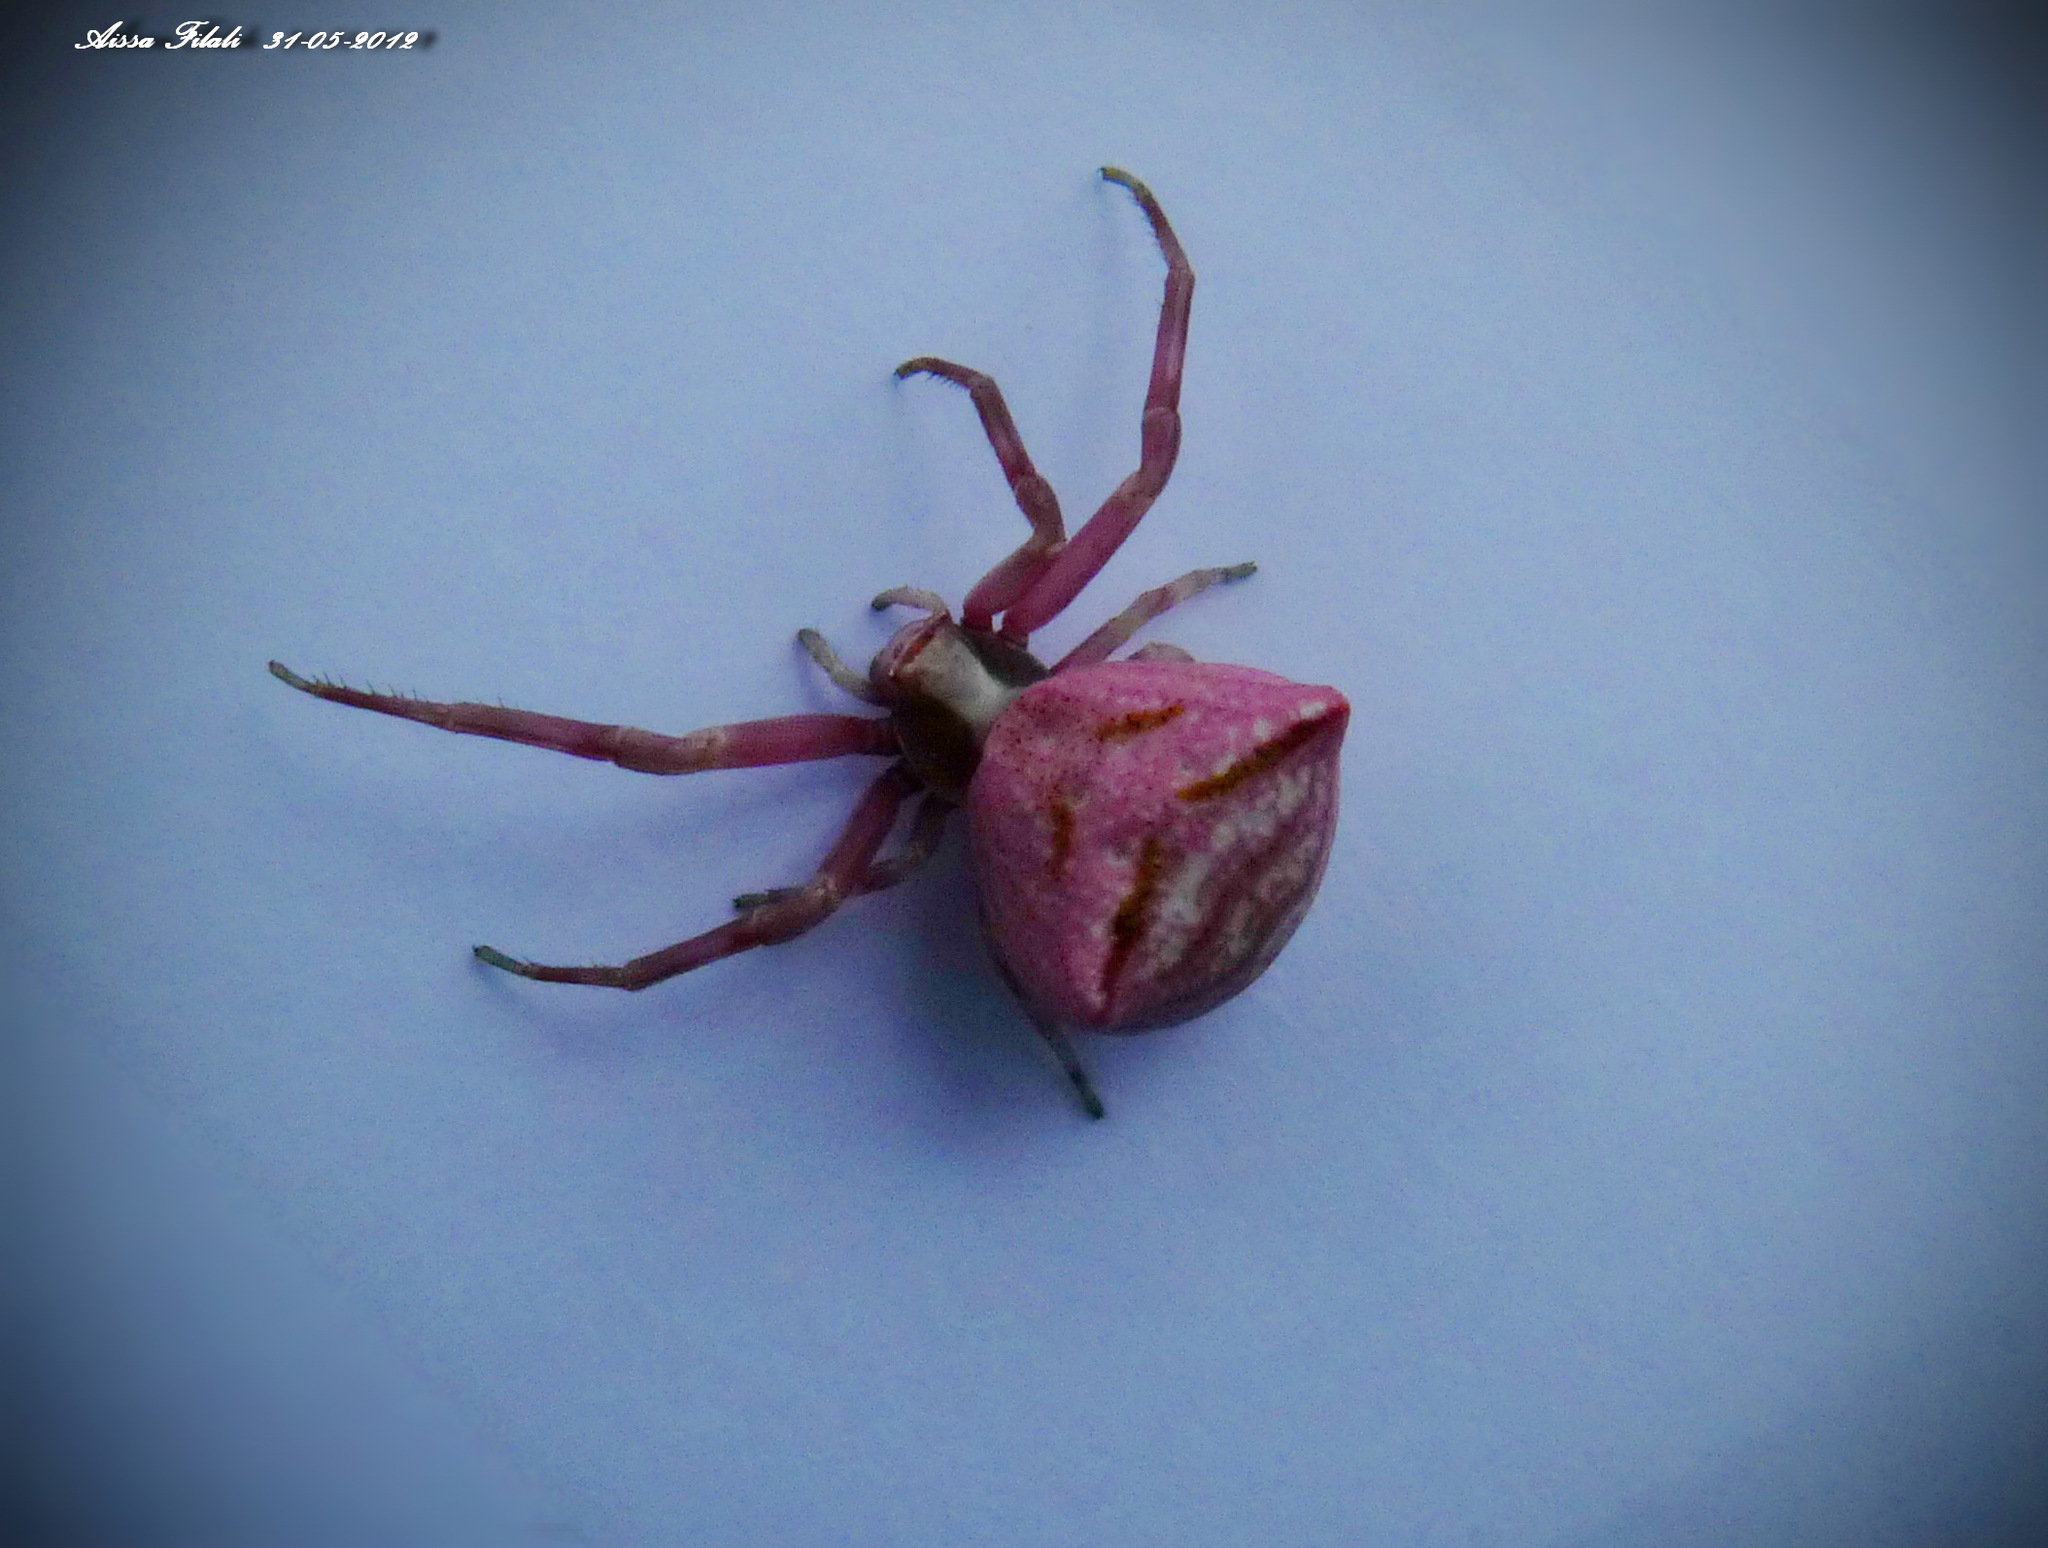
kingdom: Animalia
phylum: Arthropoda
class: Arachnida
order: Araneae
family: Thomisidae
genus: Thomisus
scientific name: Thomisus onustus
